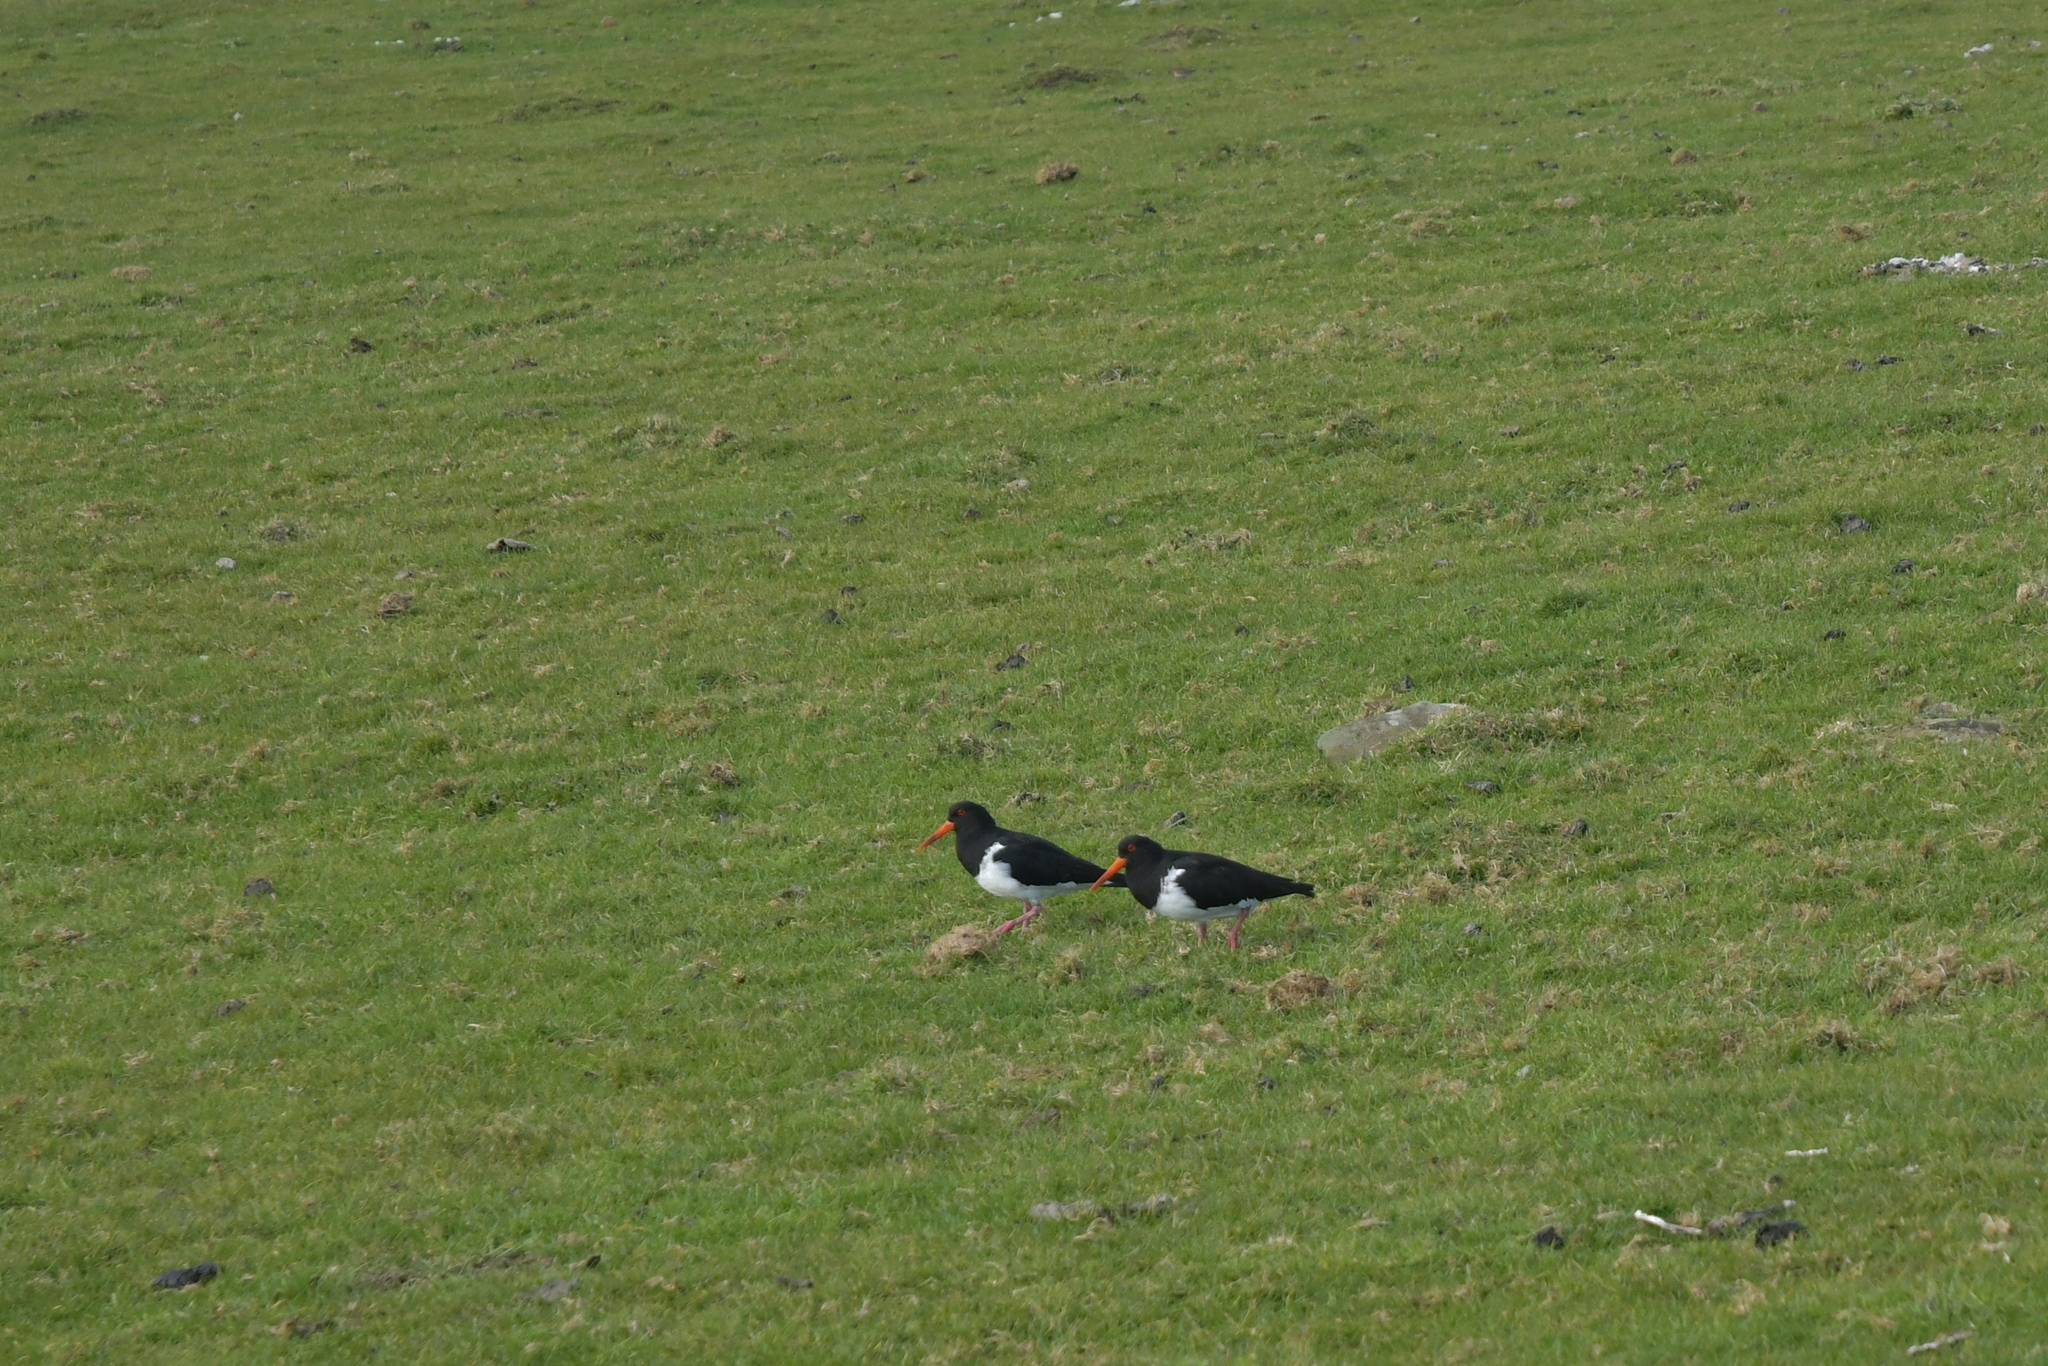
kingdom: Animalia
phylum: Chordata
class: Aves
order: Charadriiformes
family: Haematopodidae
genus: Haematopus
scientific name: Haematopus chathamensis
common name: Chatham oystercatcher
